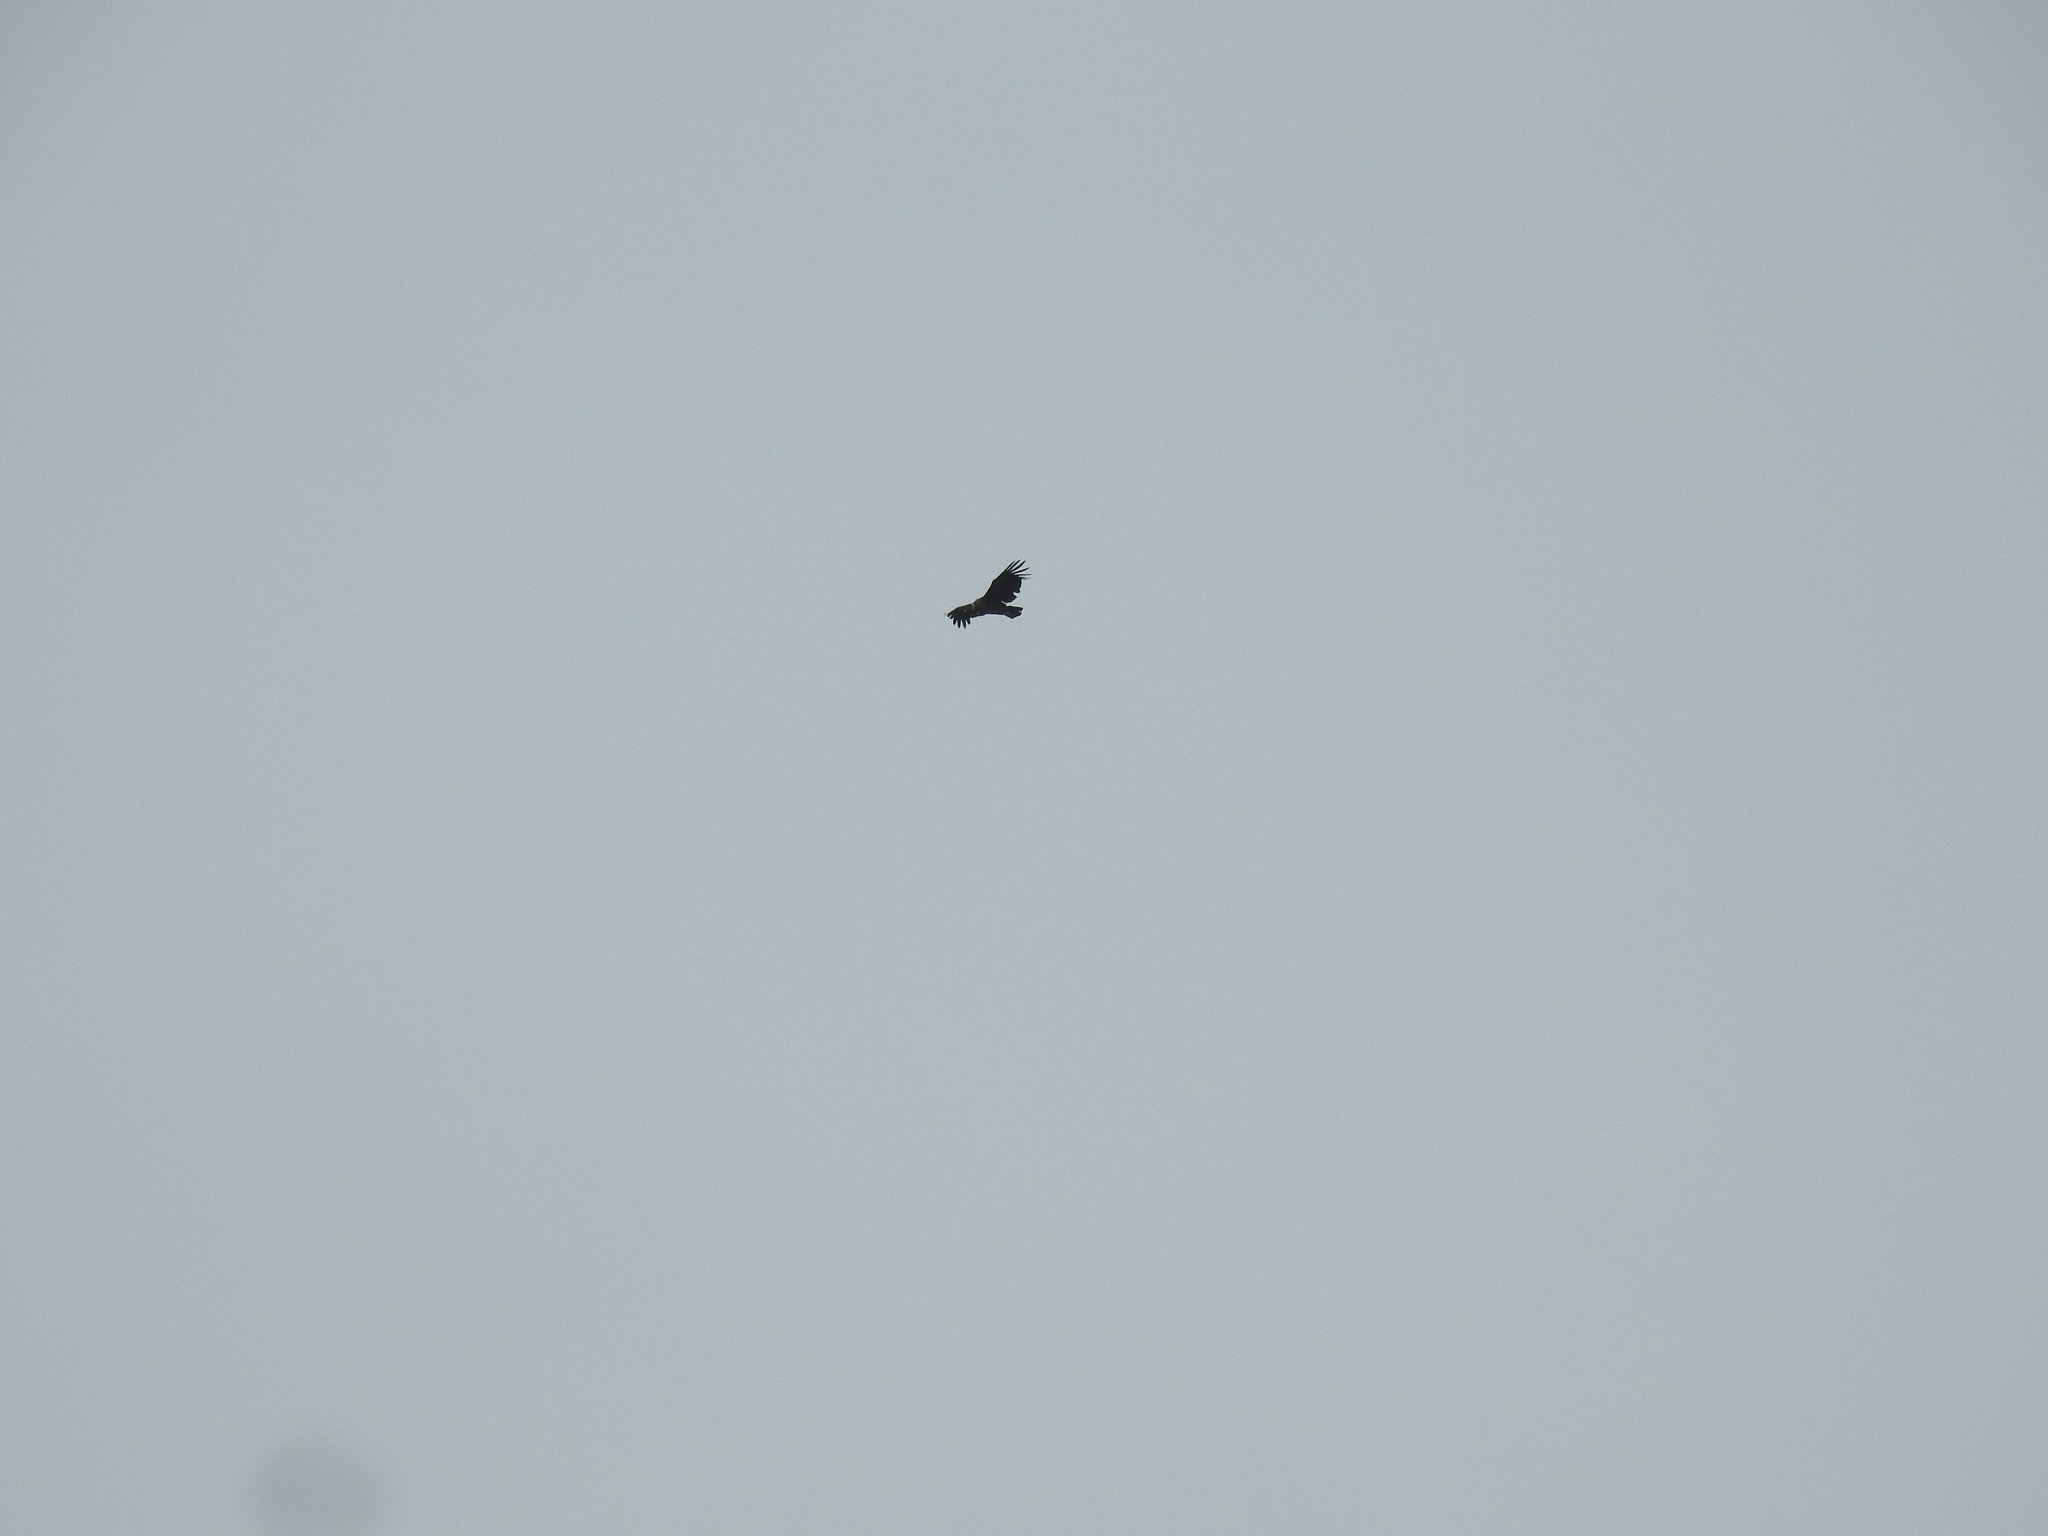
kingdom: Animalia
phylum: Chordata
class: Aves
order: Accipitriformes
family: Cathartidae
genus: Vultur
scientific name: Vultur gryphus
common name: Andean condor
